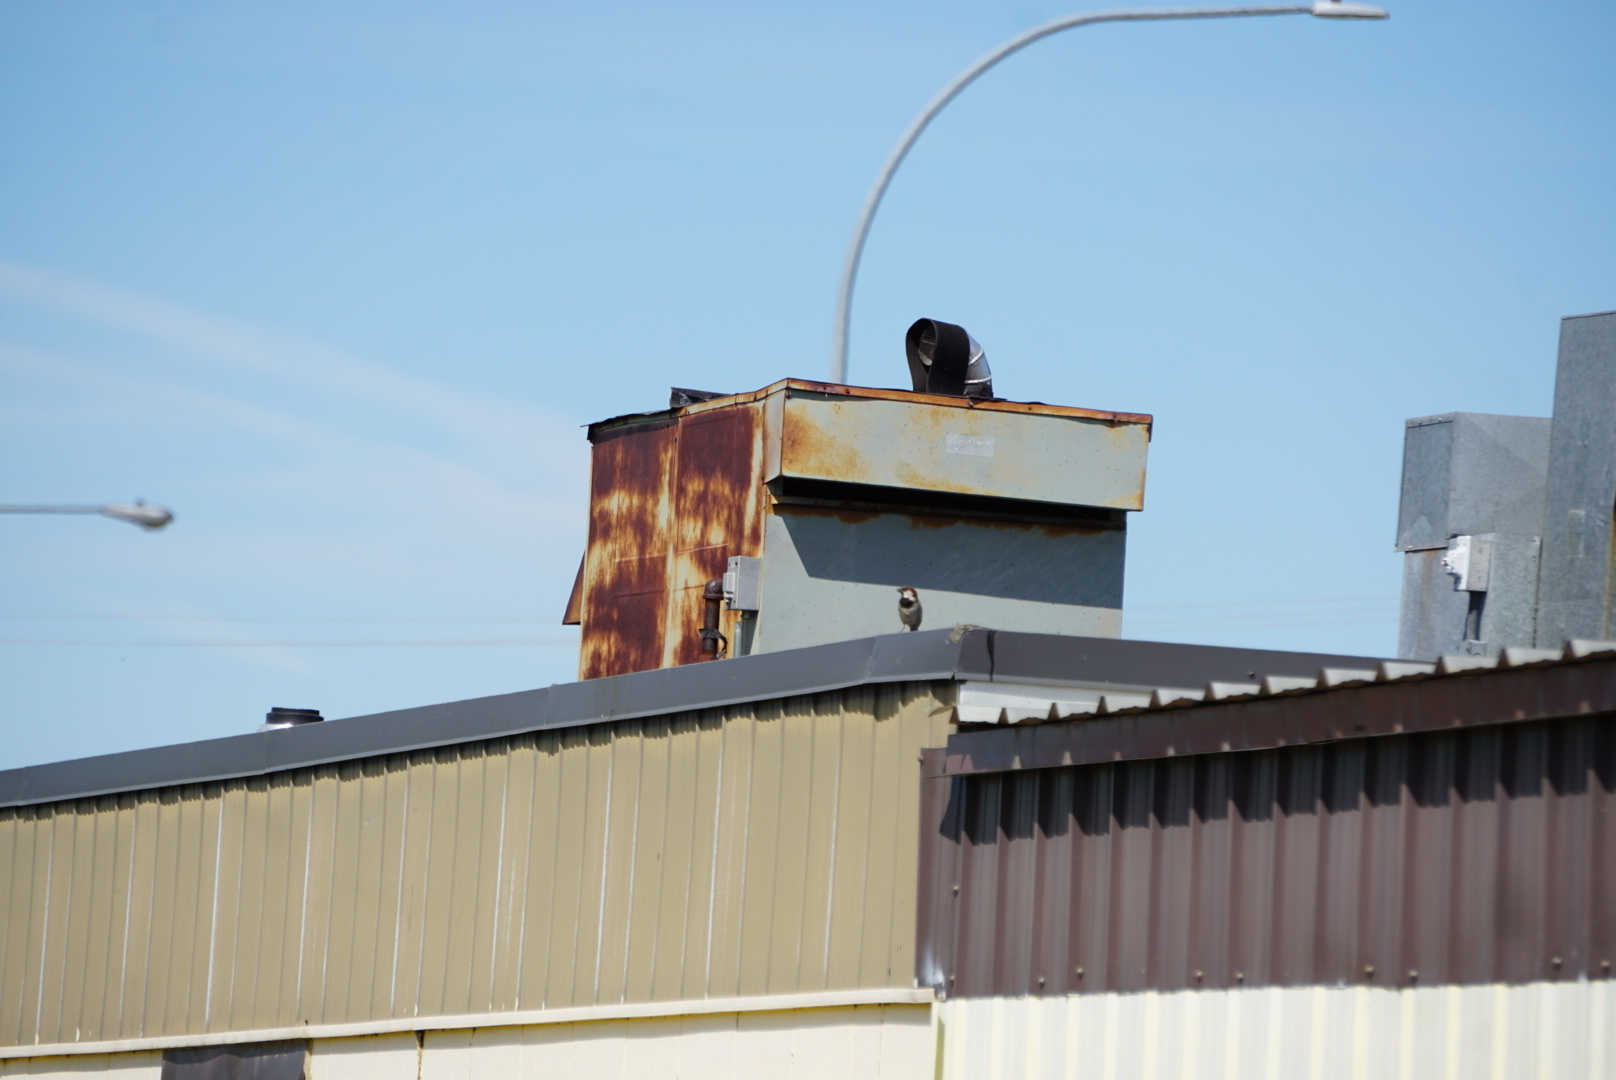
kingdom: Animalia
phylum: Chordata
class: Aves
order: Passeriformes
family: Passeridae
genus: Passer
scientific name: Passer domesticus
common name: House sparrow
